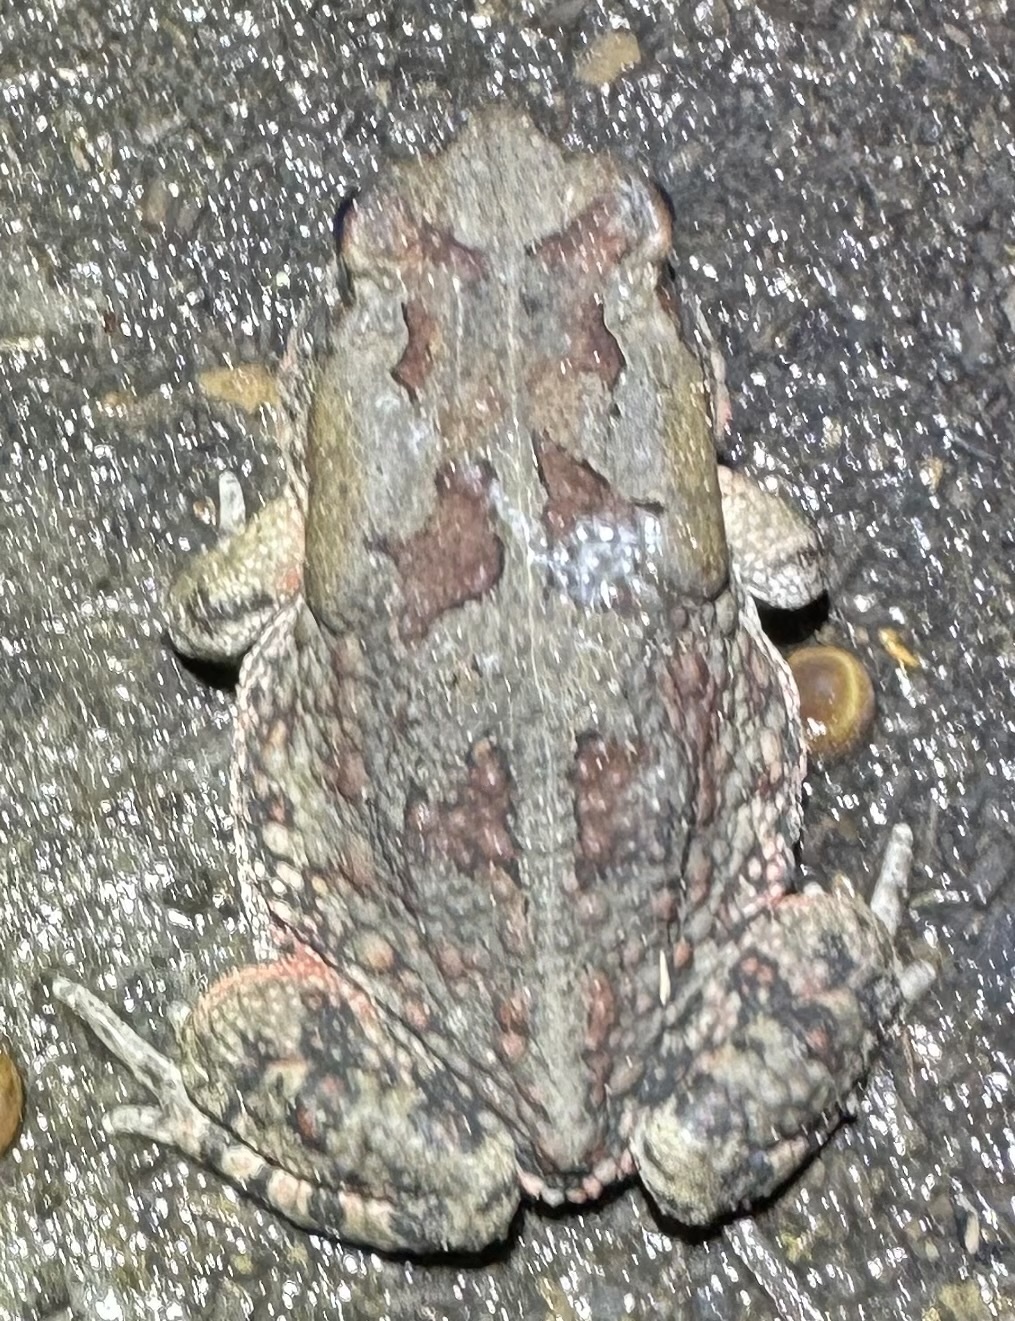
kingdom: Animalia
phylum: Chordata
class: Amphibia
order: Anura
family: Bufonidae
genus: Sclerophrys
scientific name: Sclerophrys poweri
